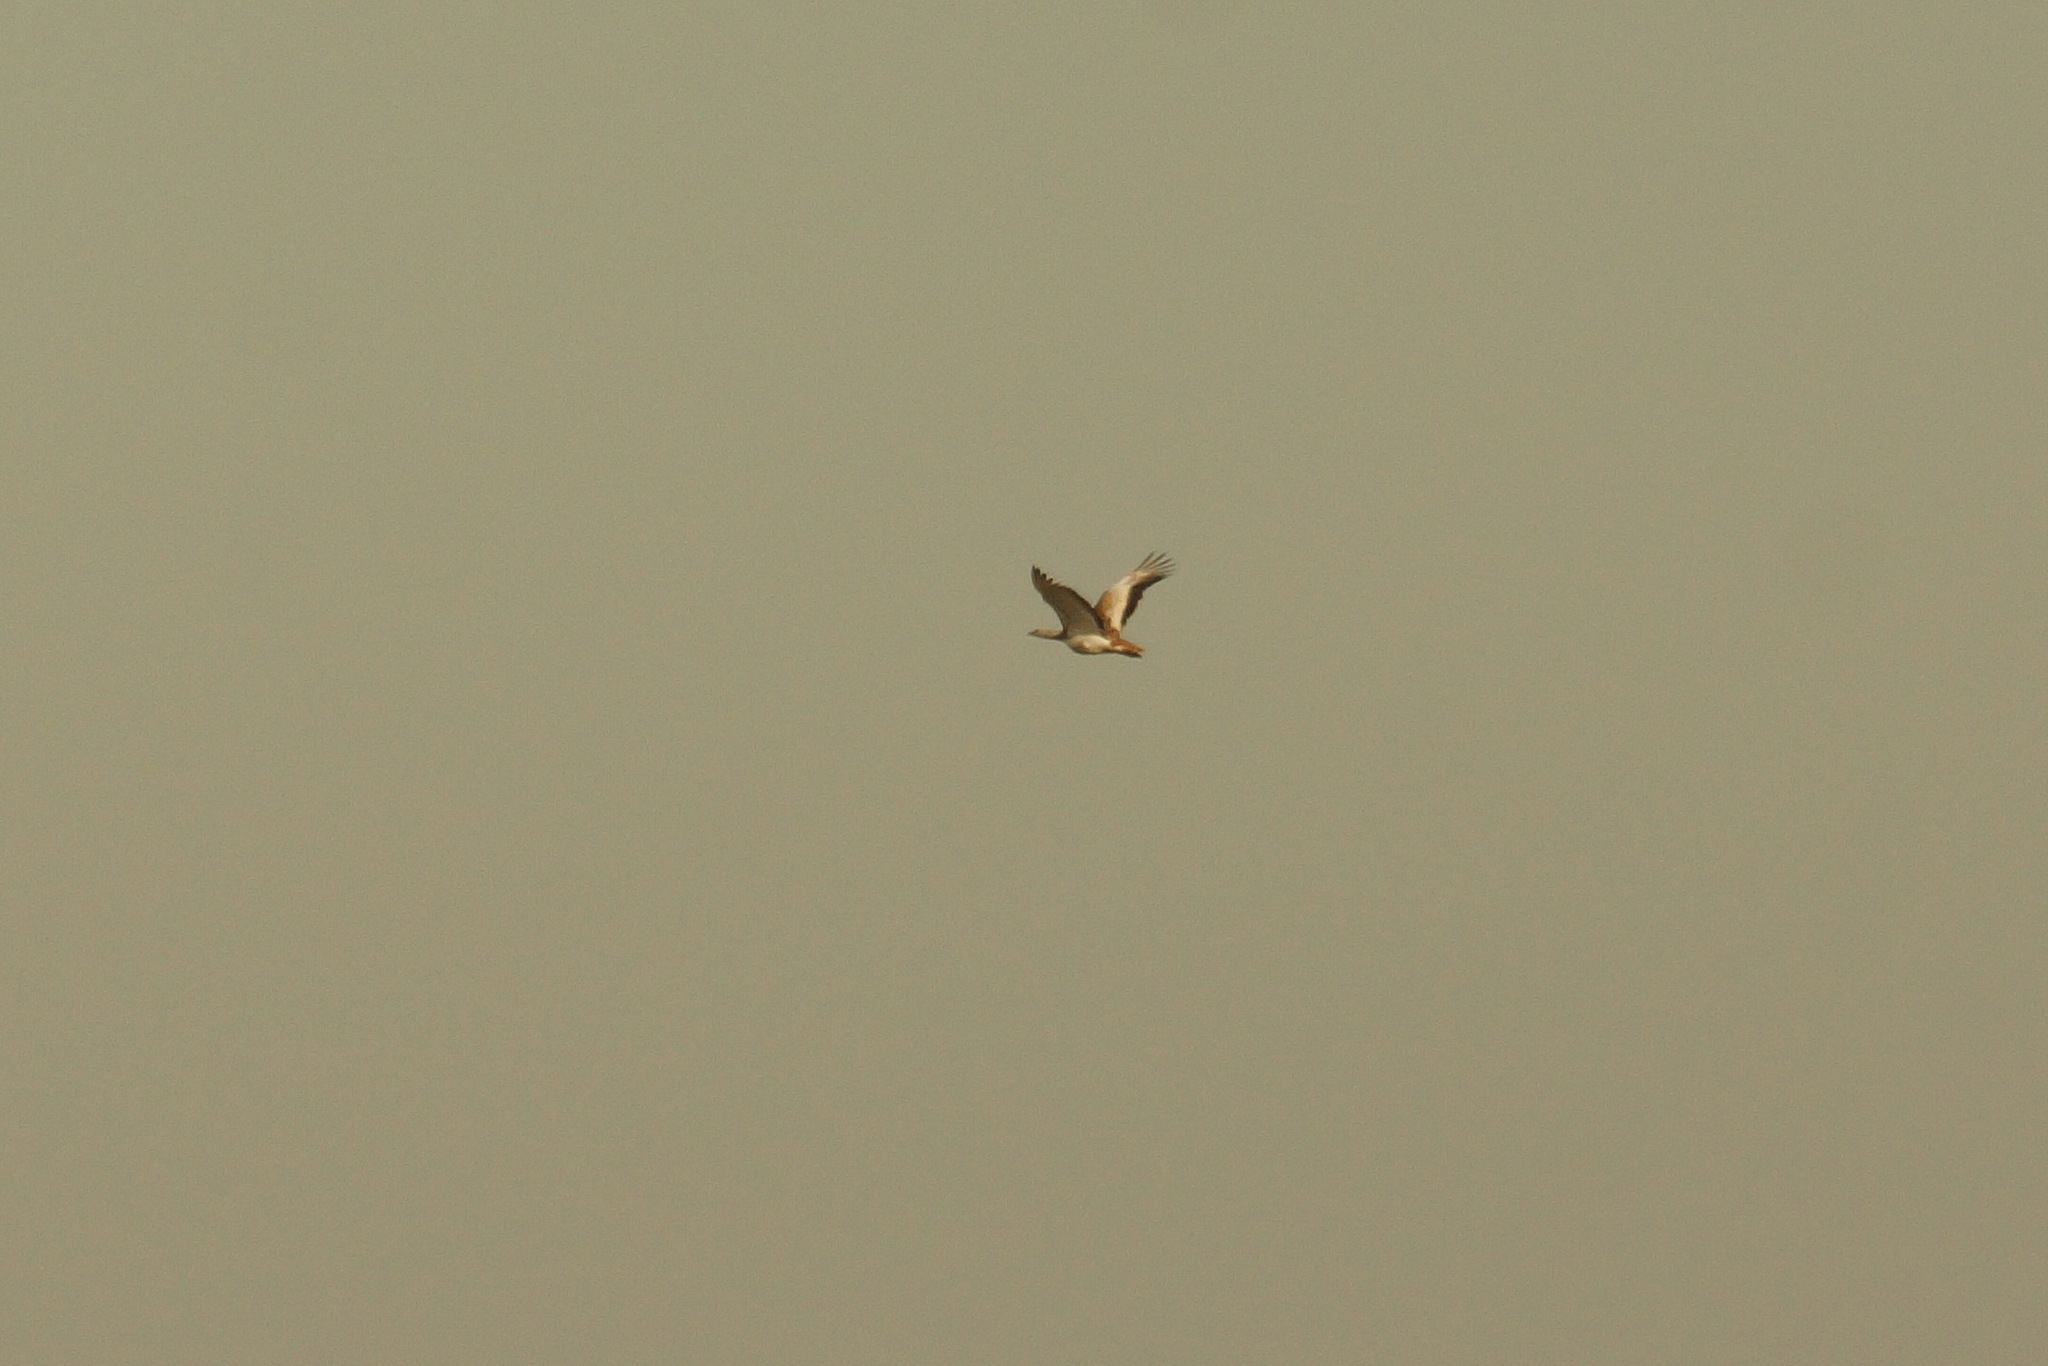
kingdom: Animalia
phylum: Chordata
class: Aves
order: Otidiformes
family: Otididae
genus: Otis
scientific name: Otis tarda
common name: Great bustard
